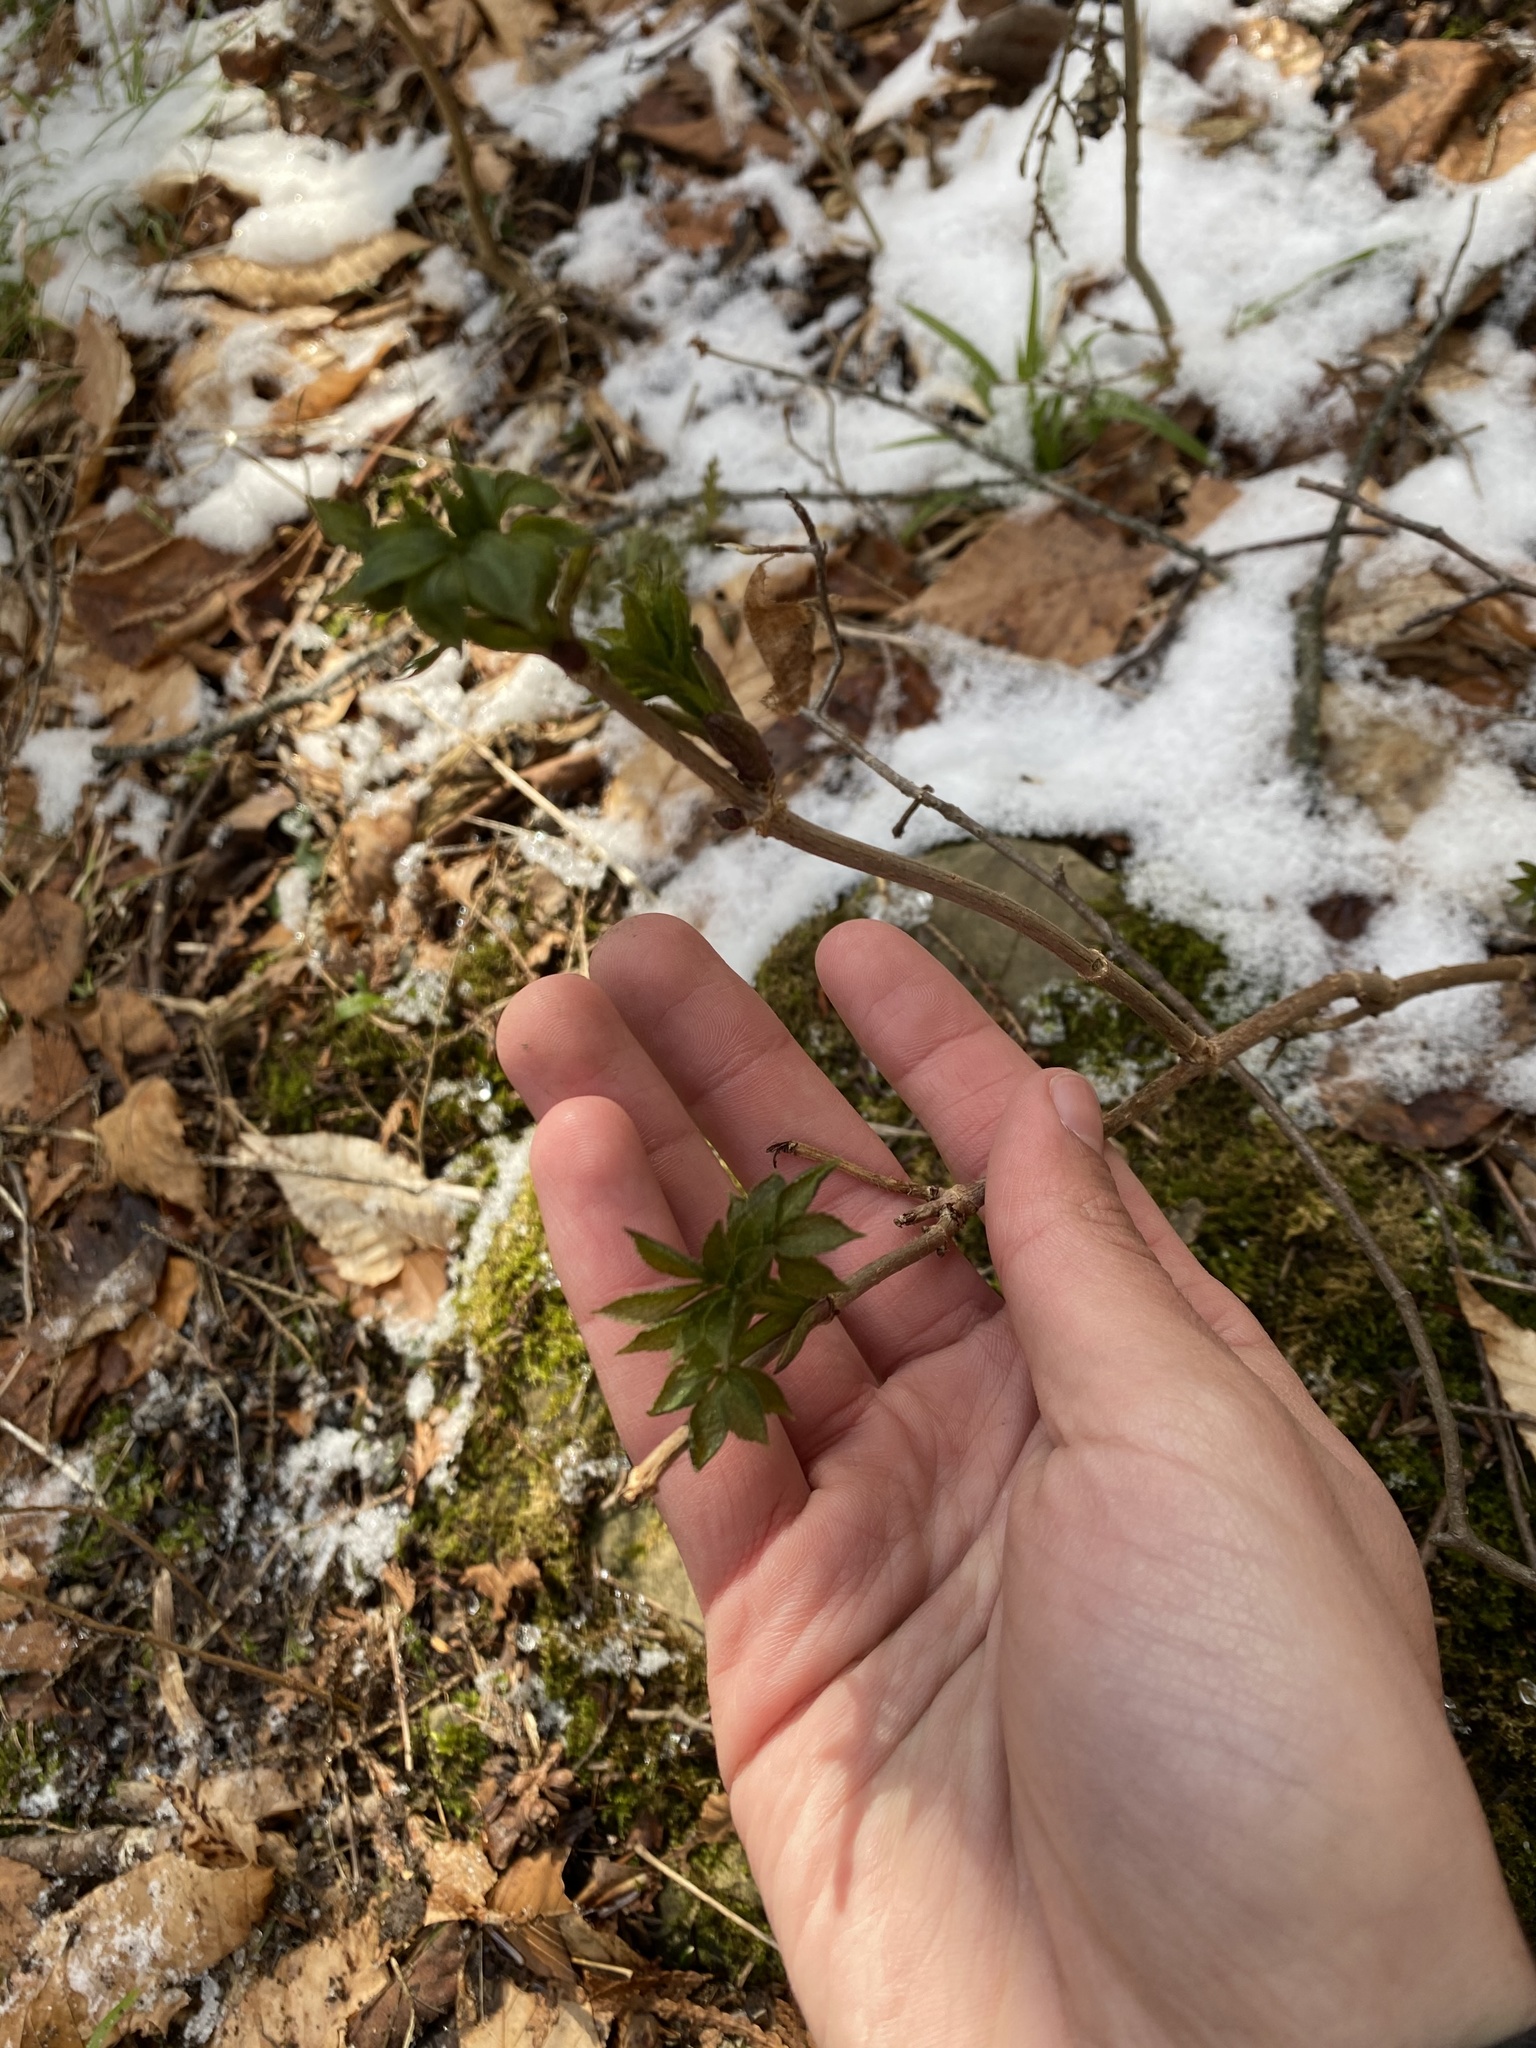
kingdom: Plantae
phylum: Tracheophyta
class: Magnoliopsida
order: Dipsacales
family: Viburnaceae
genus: Sambucus
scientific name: Sambucus
